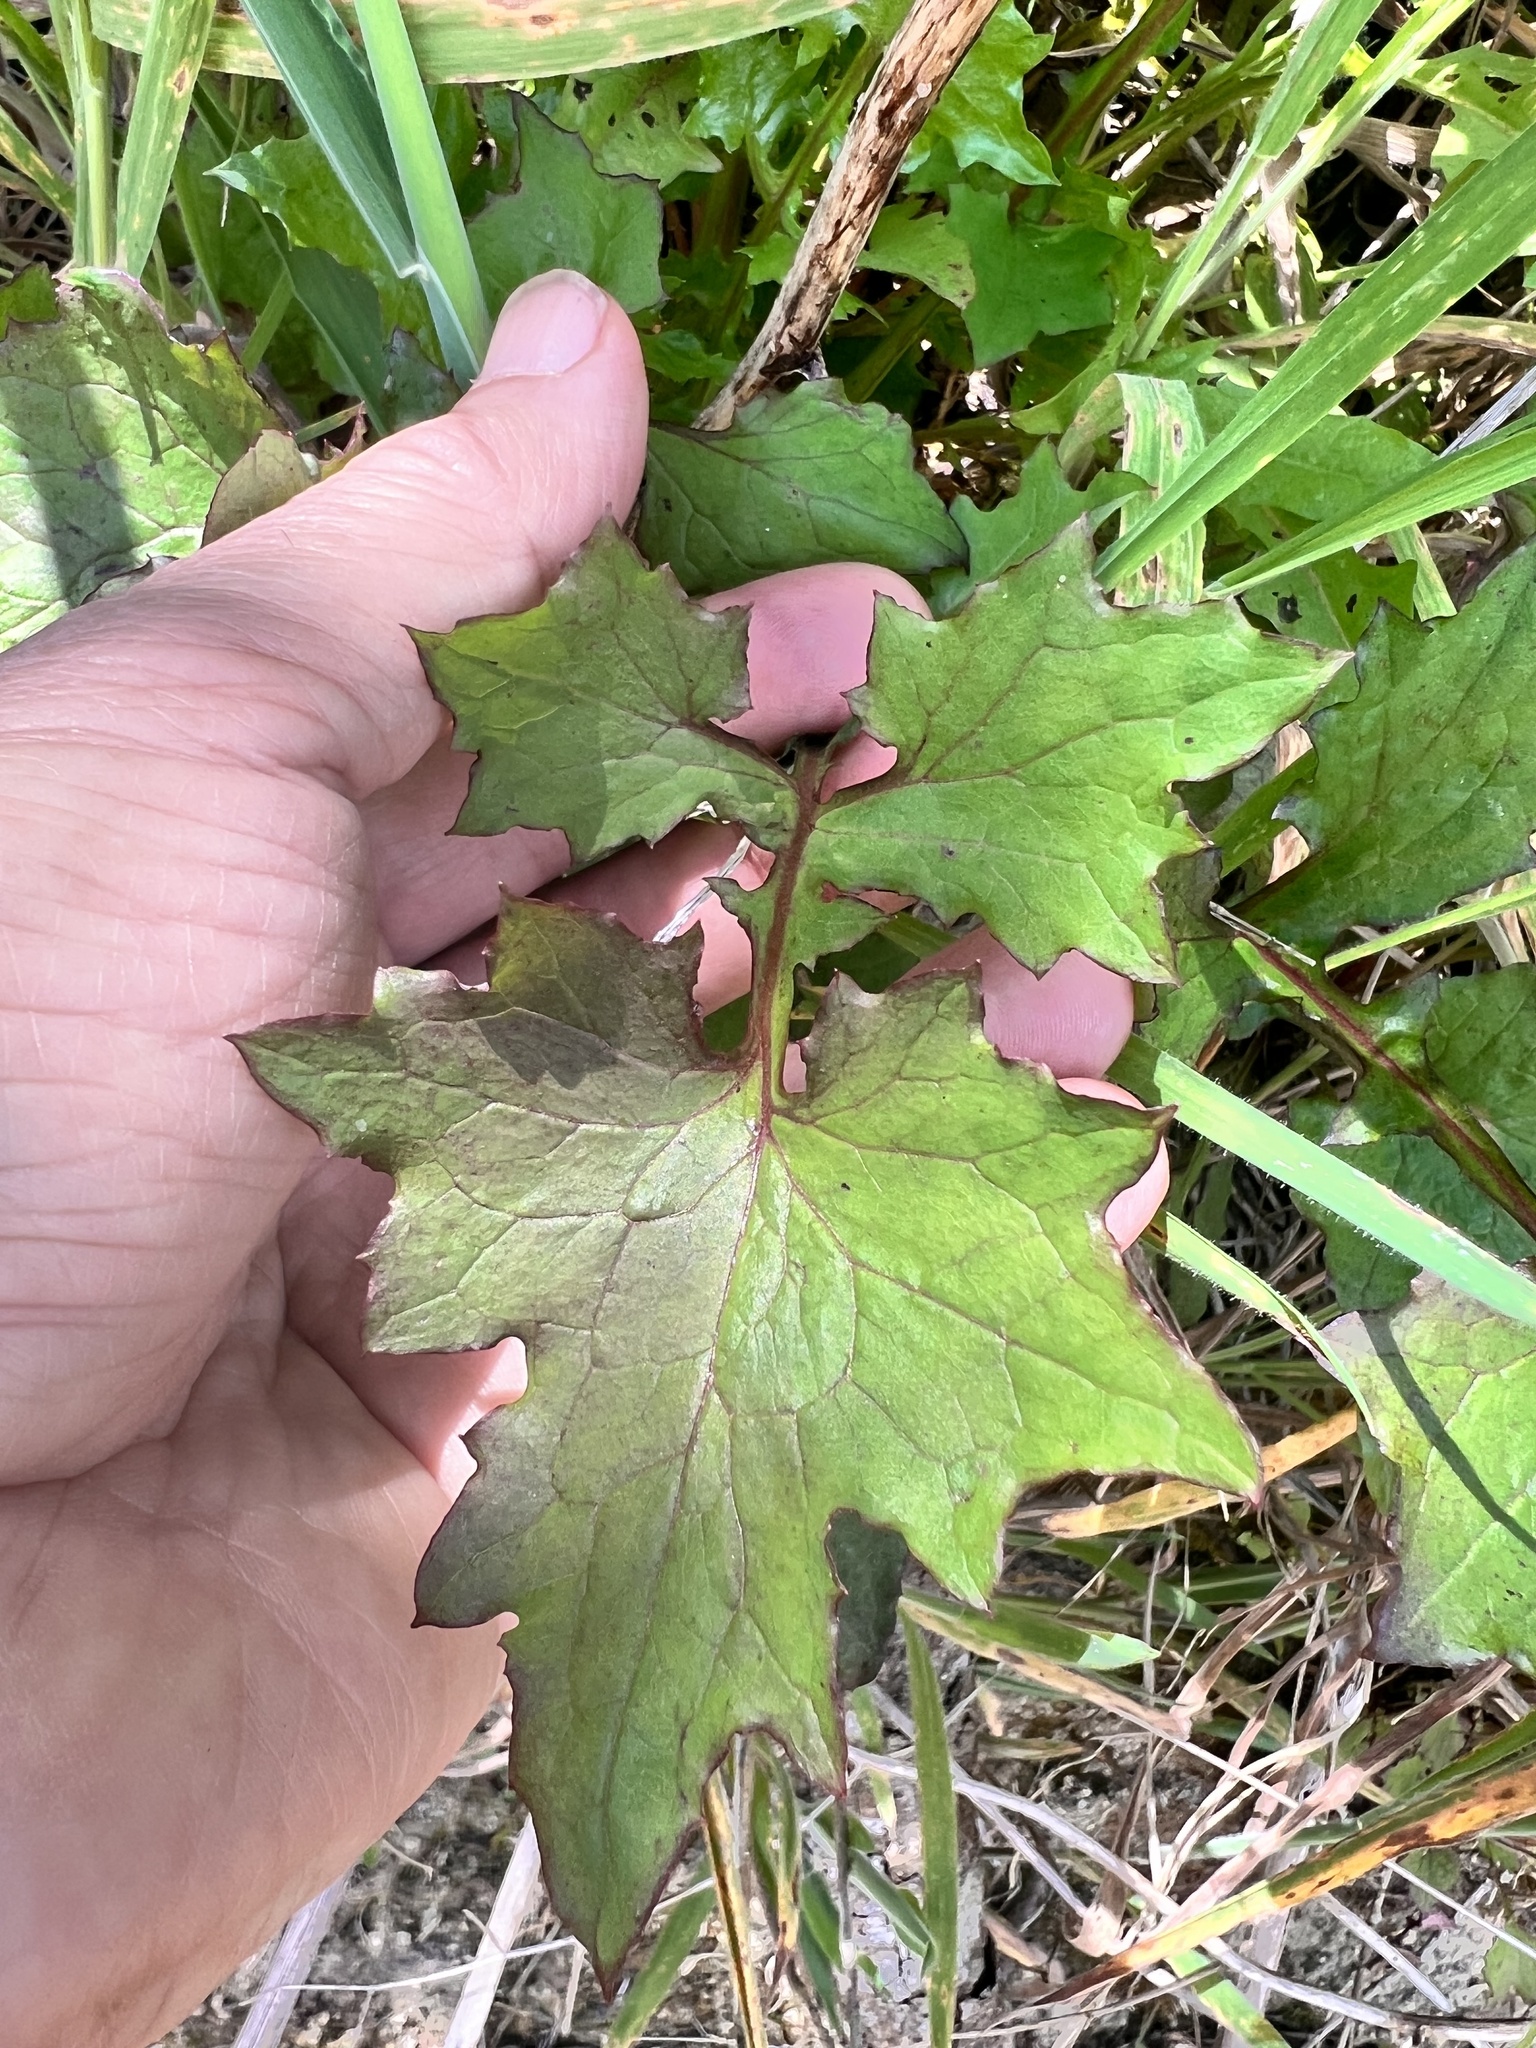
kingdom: Plantae
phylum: Tracheophyta
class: Magnoliopsida
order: Asterales
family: Asteraceae
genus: Mycelis
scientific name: Mycelis muralis
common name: Wall lettuce
